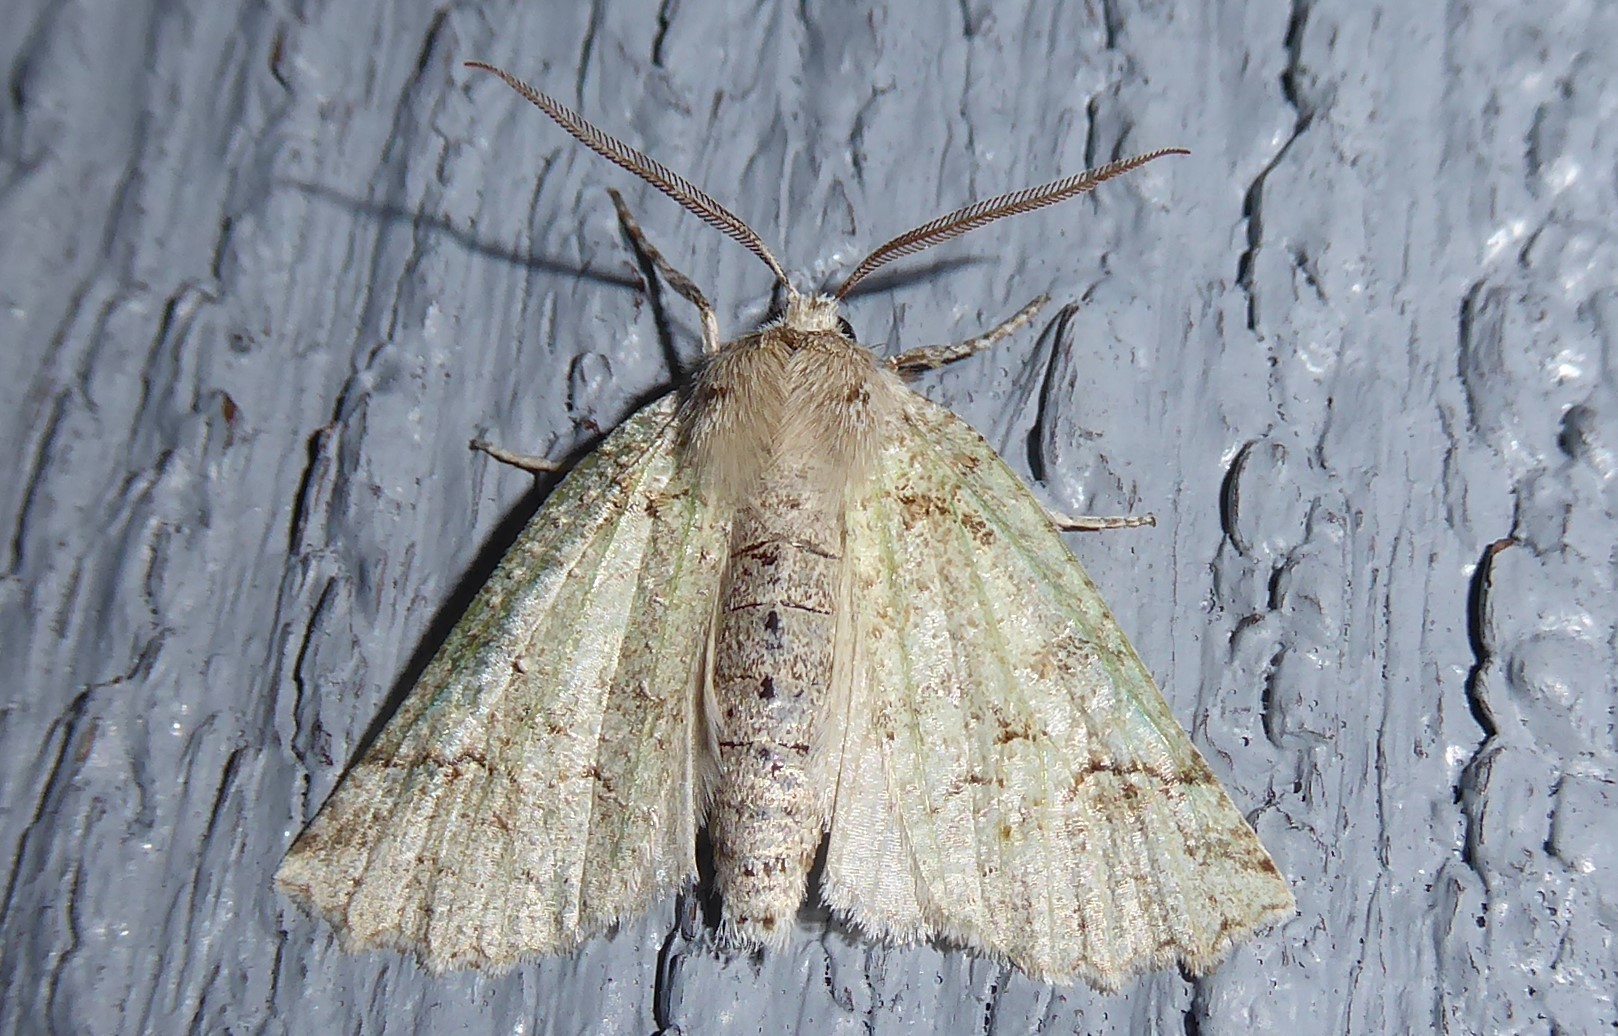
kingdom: Animalia
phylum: Arthropoda
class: Insecta
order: Lepidoptera
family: Geometridae
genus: Declana
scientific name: Declana floccosa
